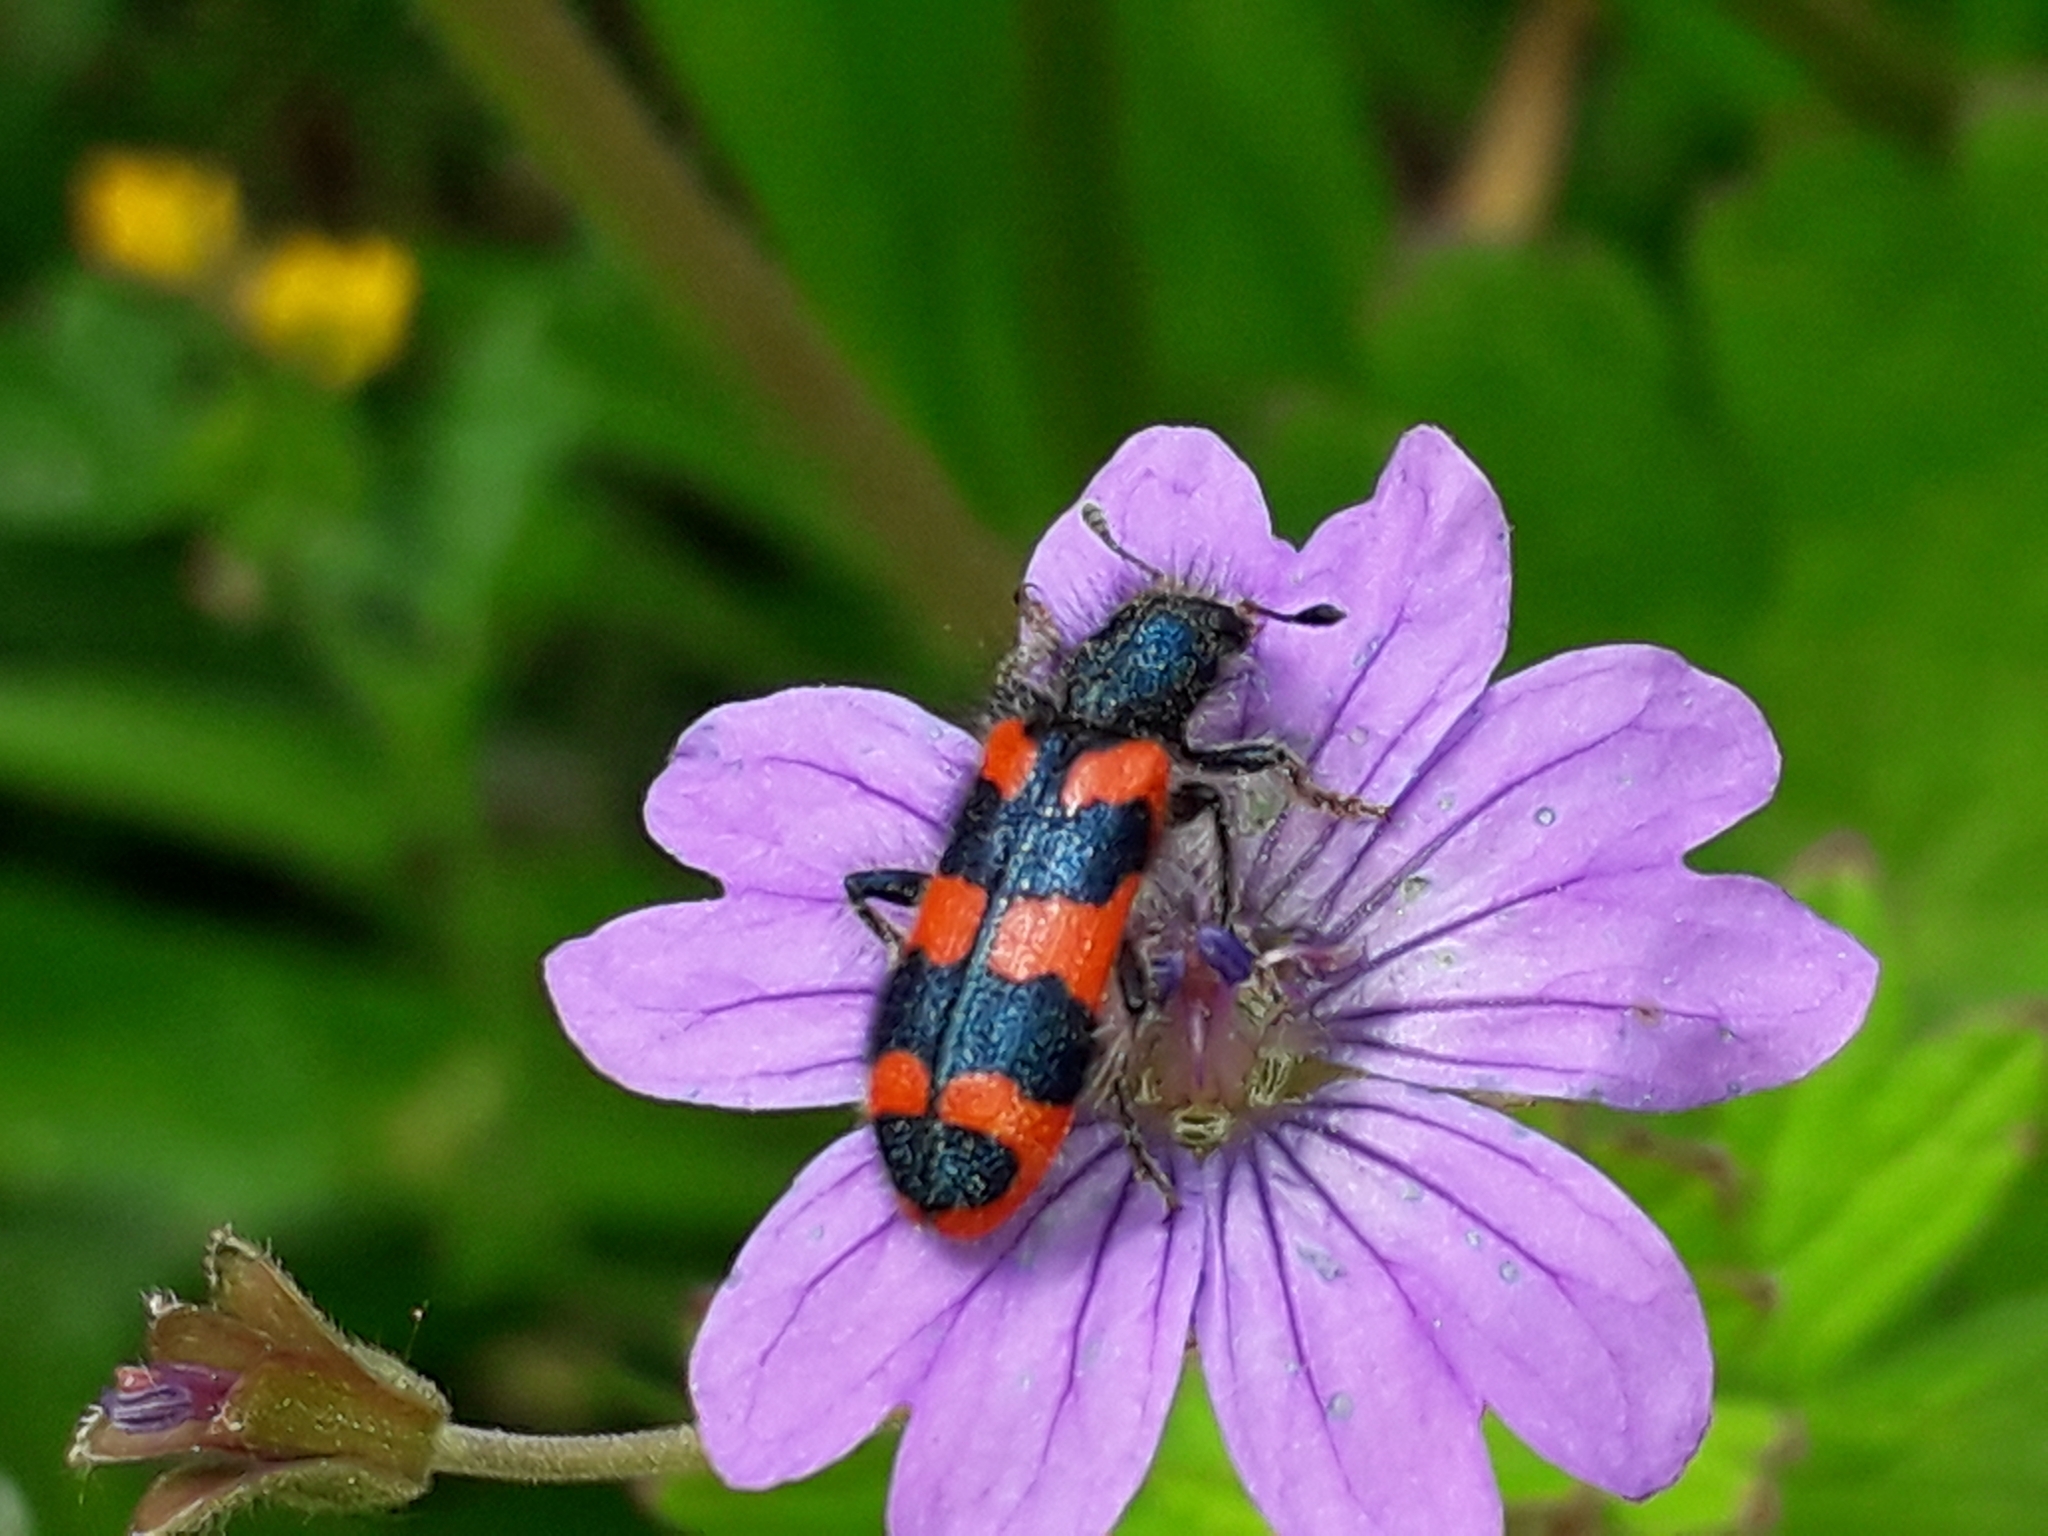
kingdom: Animalia
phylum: Arthropoda
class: Insecta
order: Coleoptera
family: Cleridae
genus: Trichodes
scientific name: Trichodes alvearius
